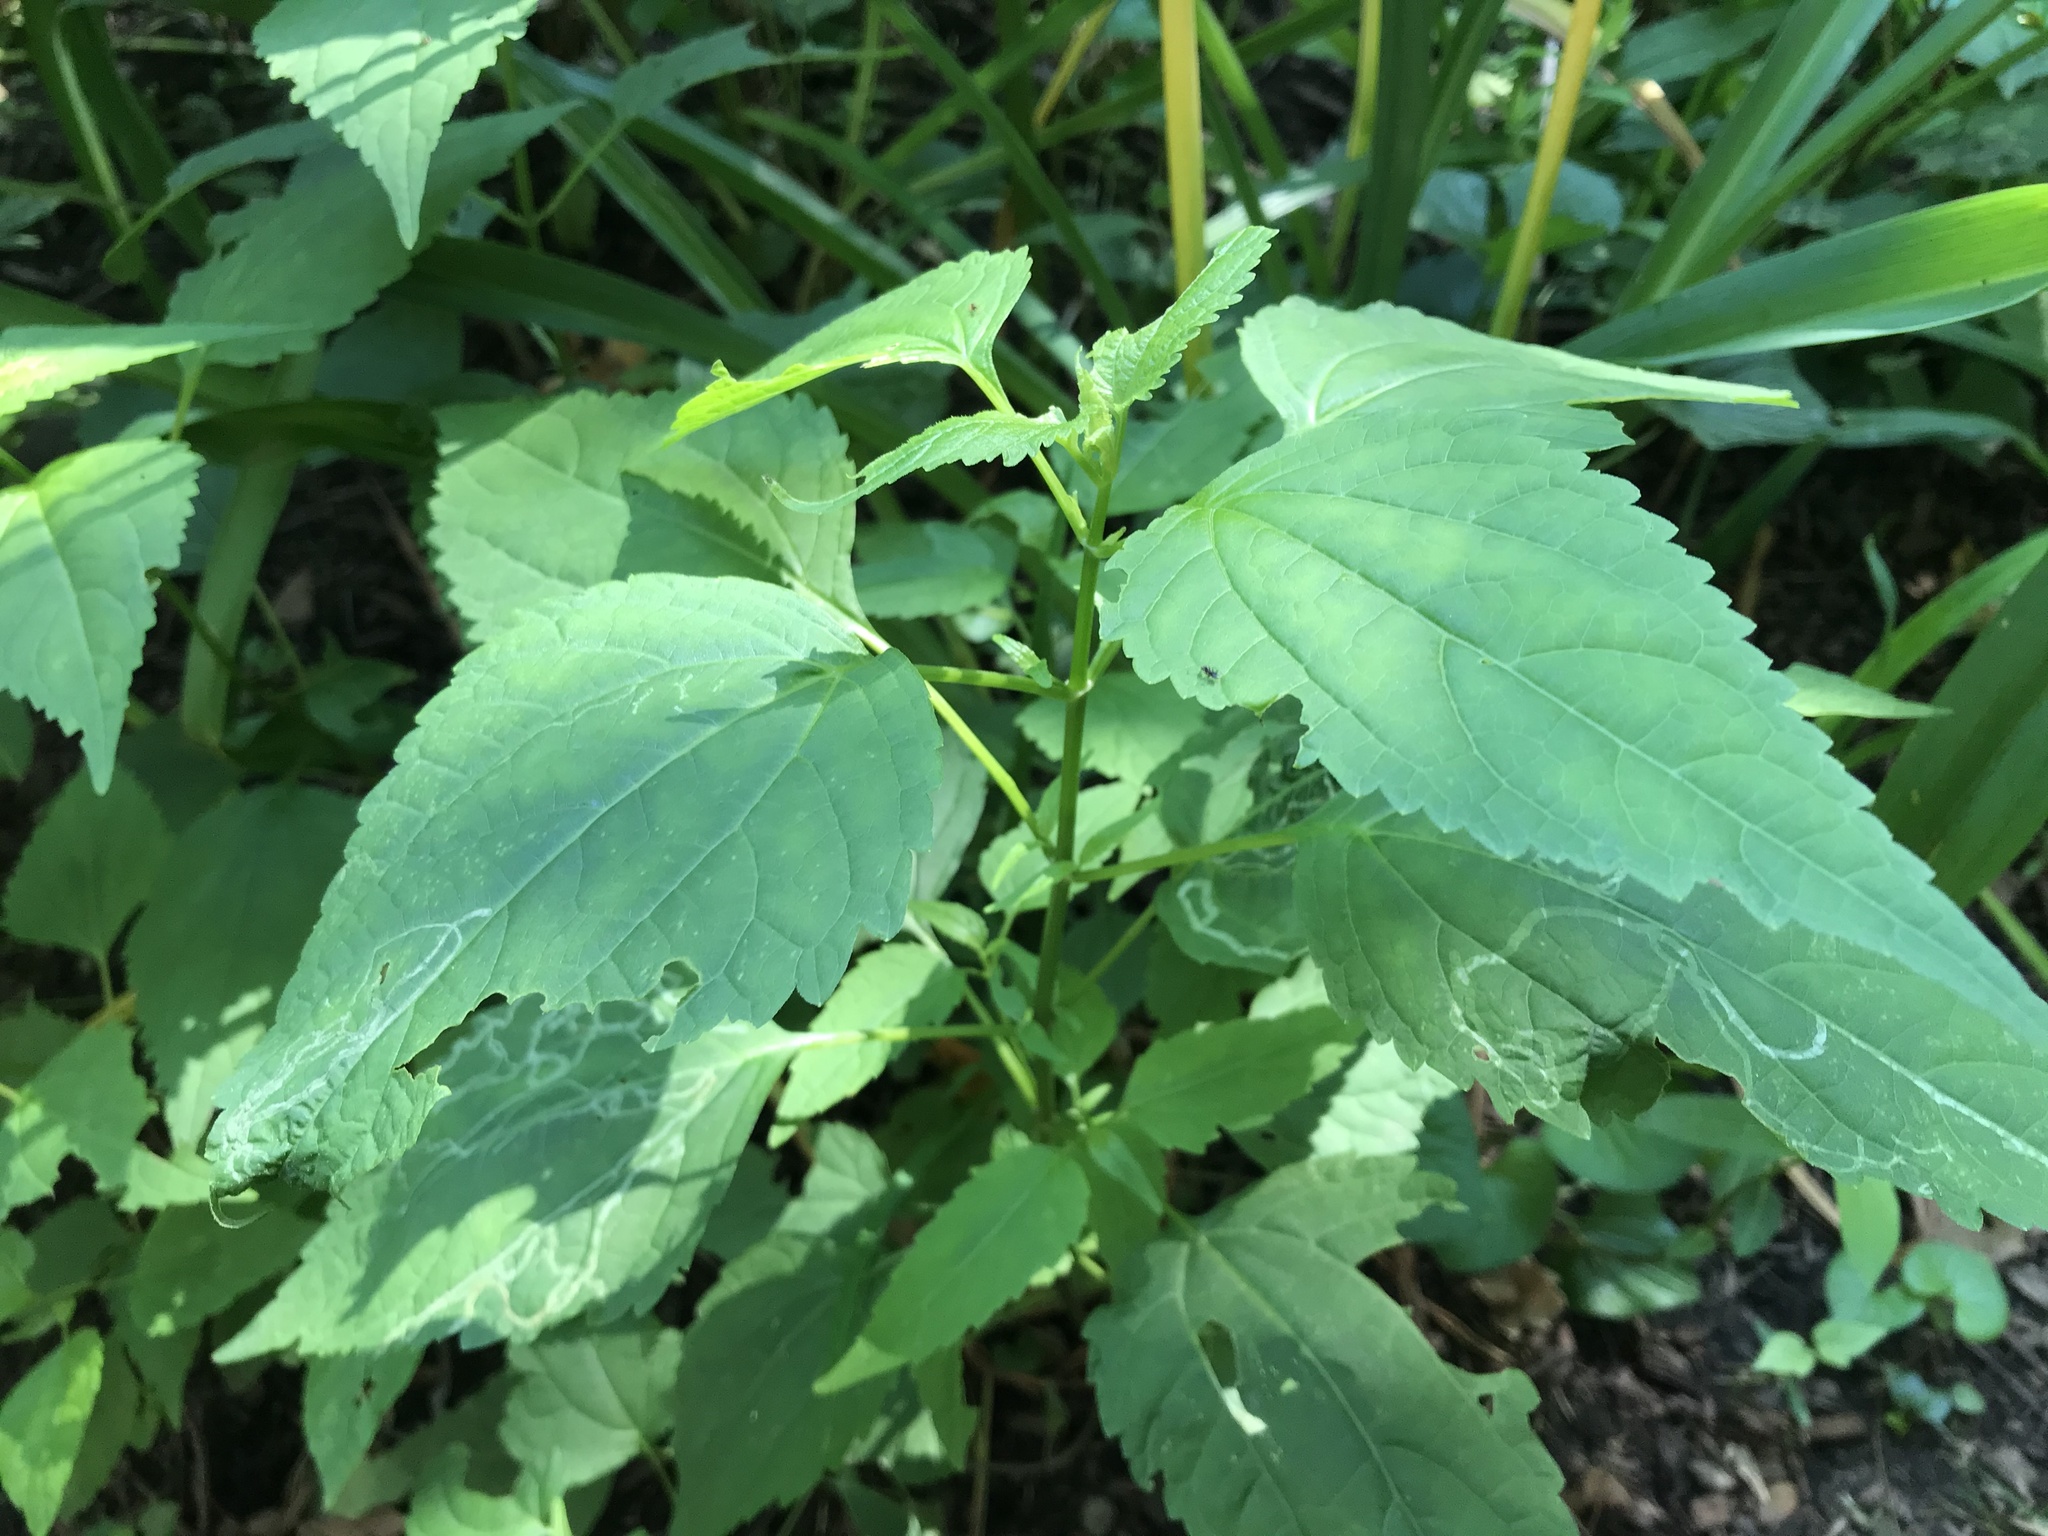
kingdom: Plantae
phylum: Tracheophyta
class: Magnoliopsida
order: Asterales
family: Asteraceae
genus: Ageratina
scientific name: Ageratina altissima
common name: White snakeroot
